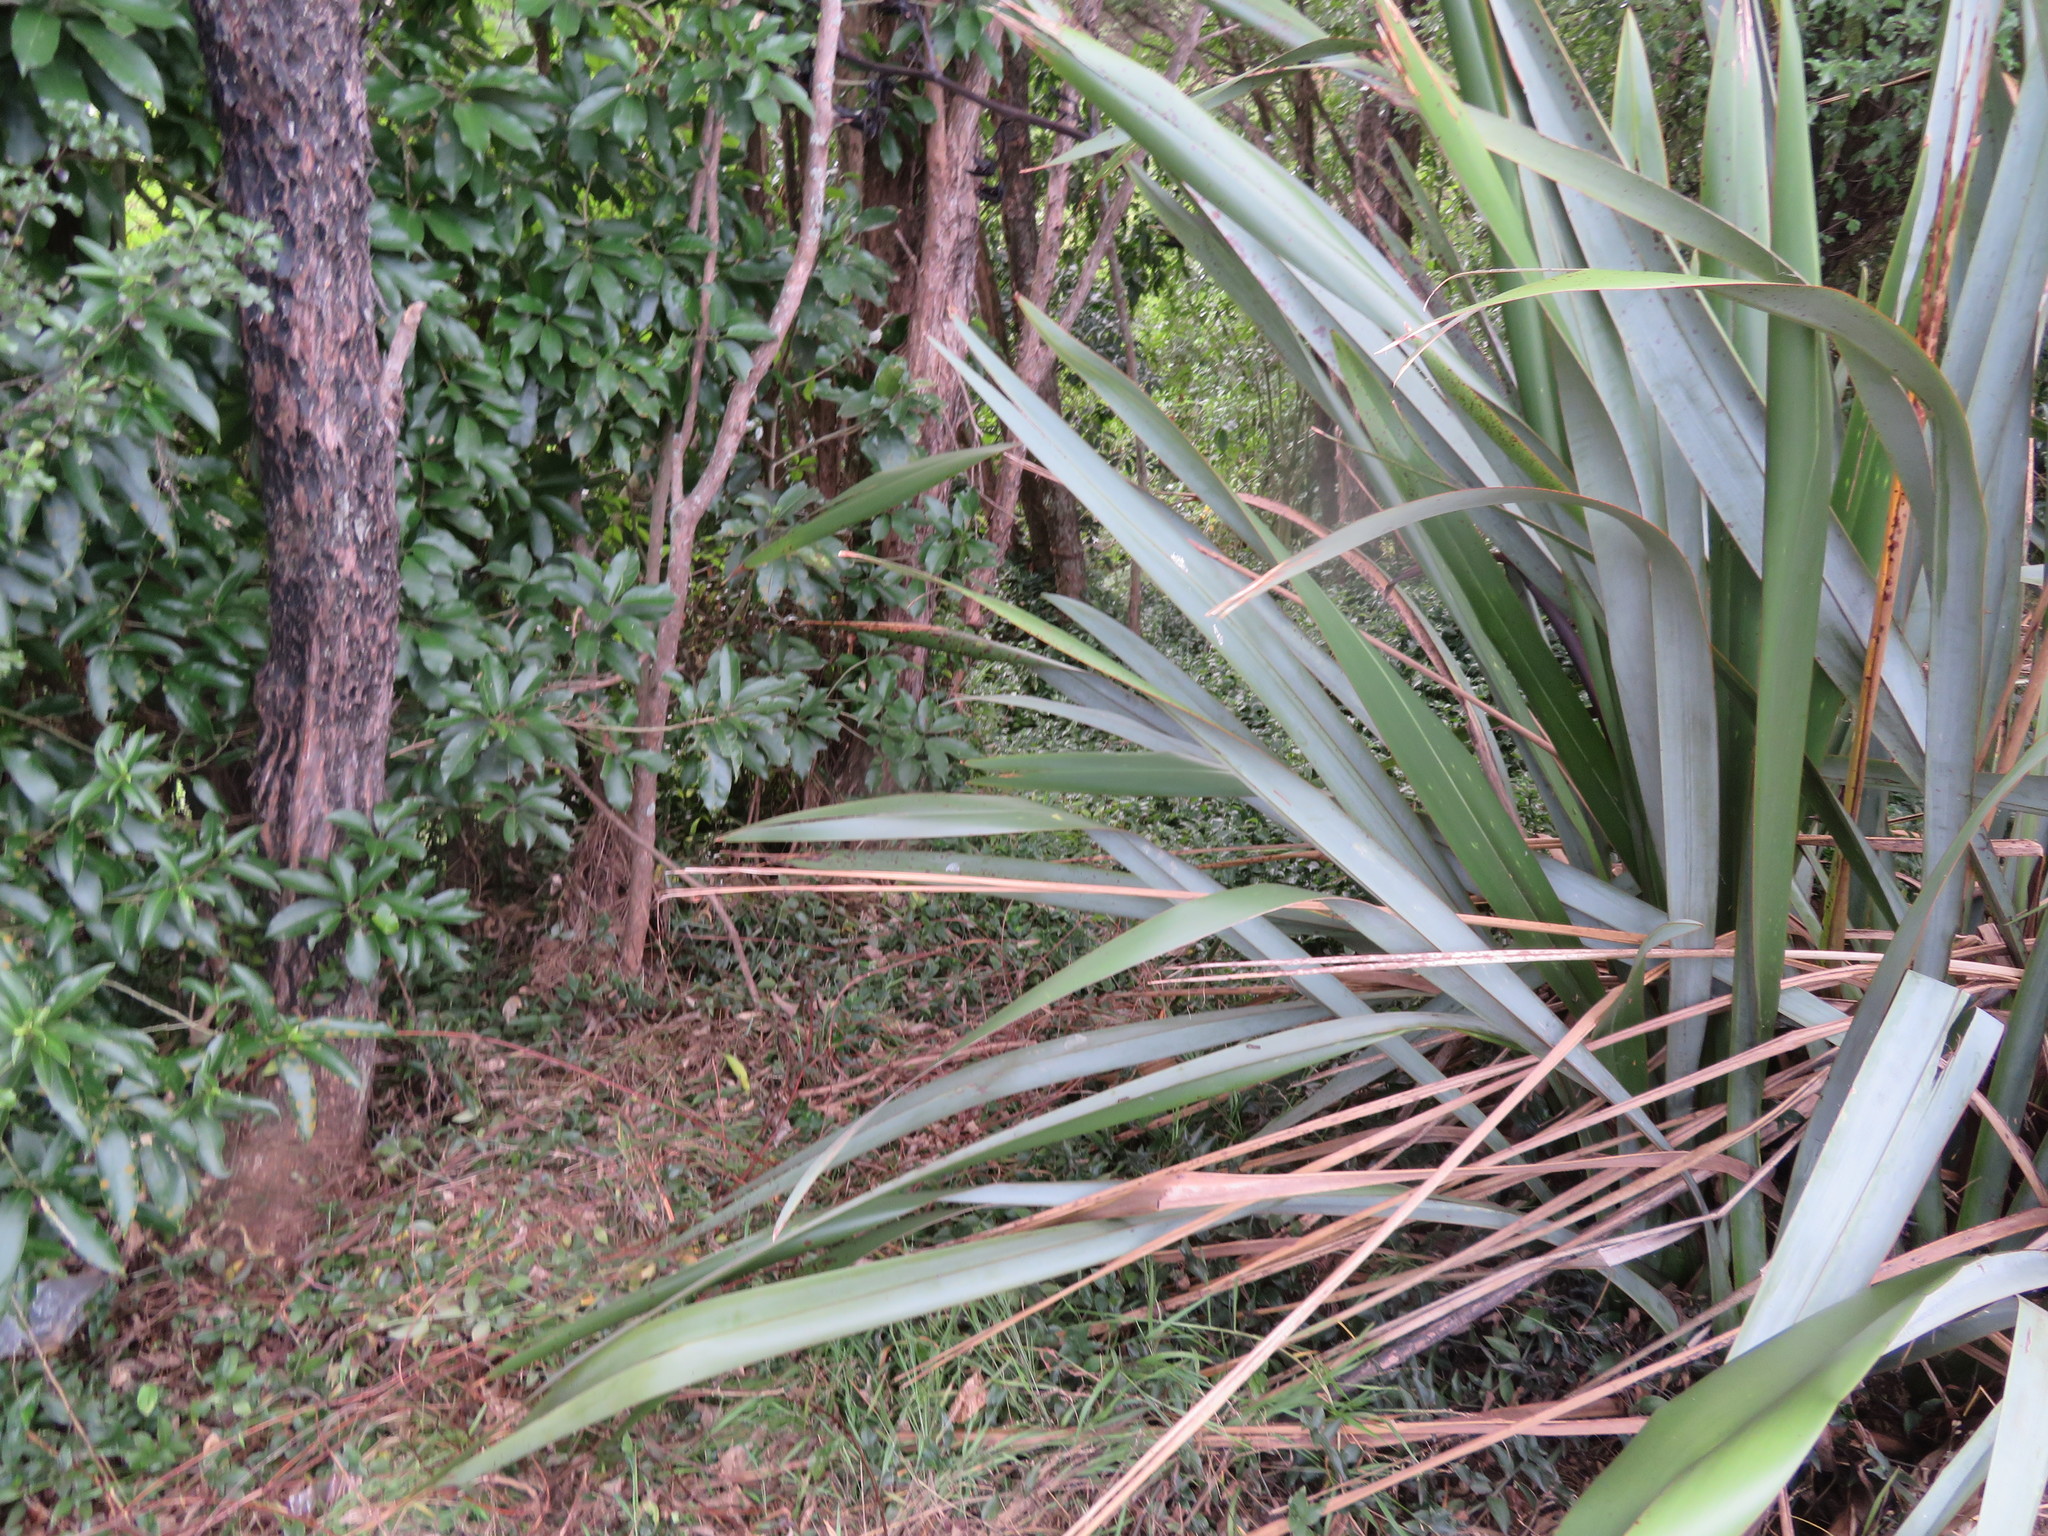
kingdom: Plantae
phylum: Tracheophyta
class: Liliopsida
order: Asparagales
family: Asphodelaceae
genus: Phormium
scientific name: Phormium tenax
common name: New zealand flax
